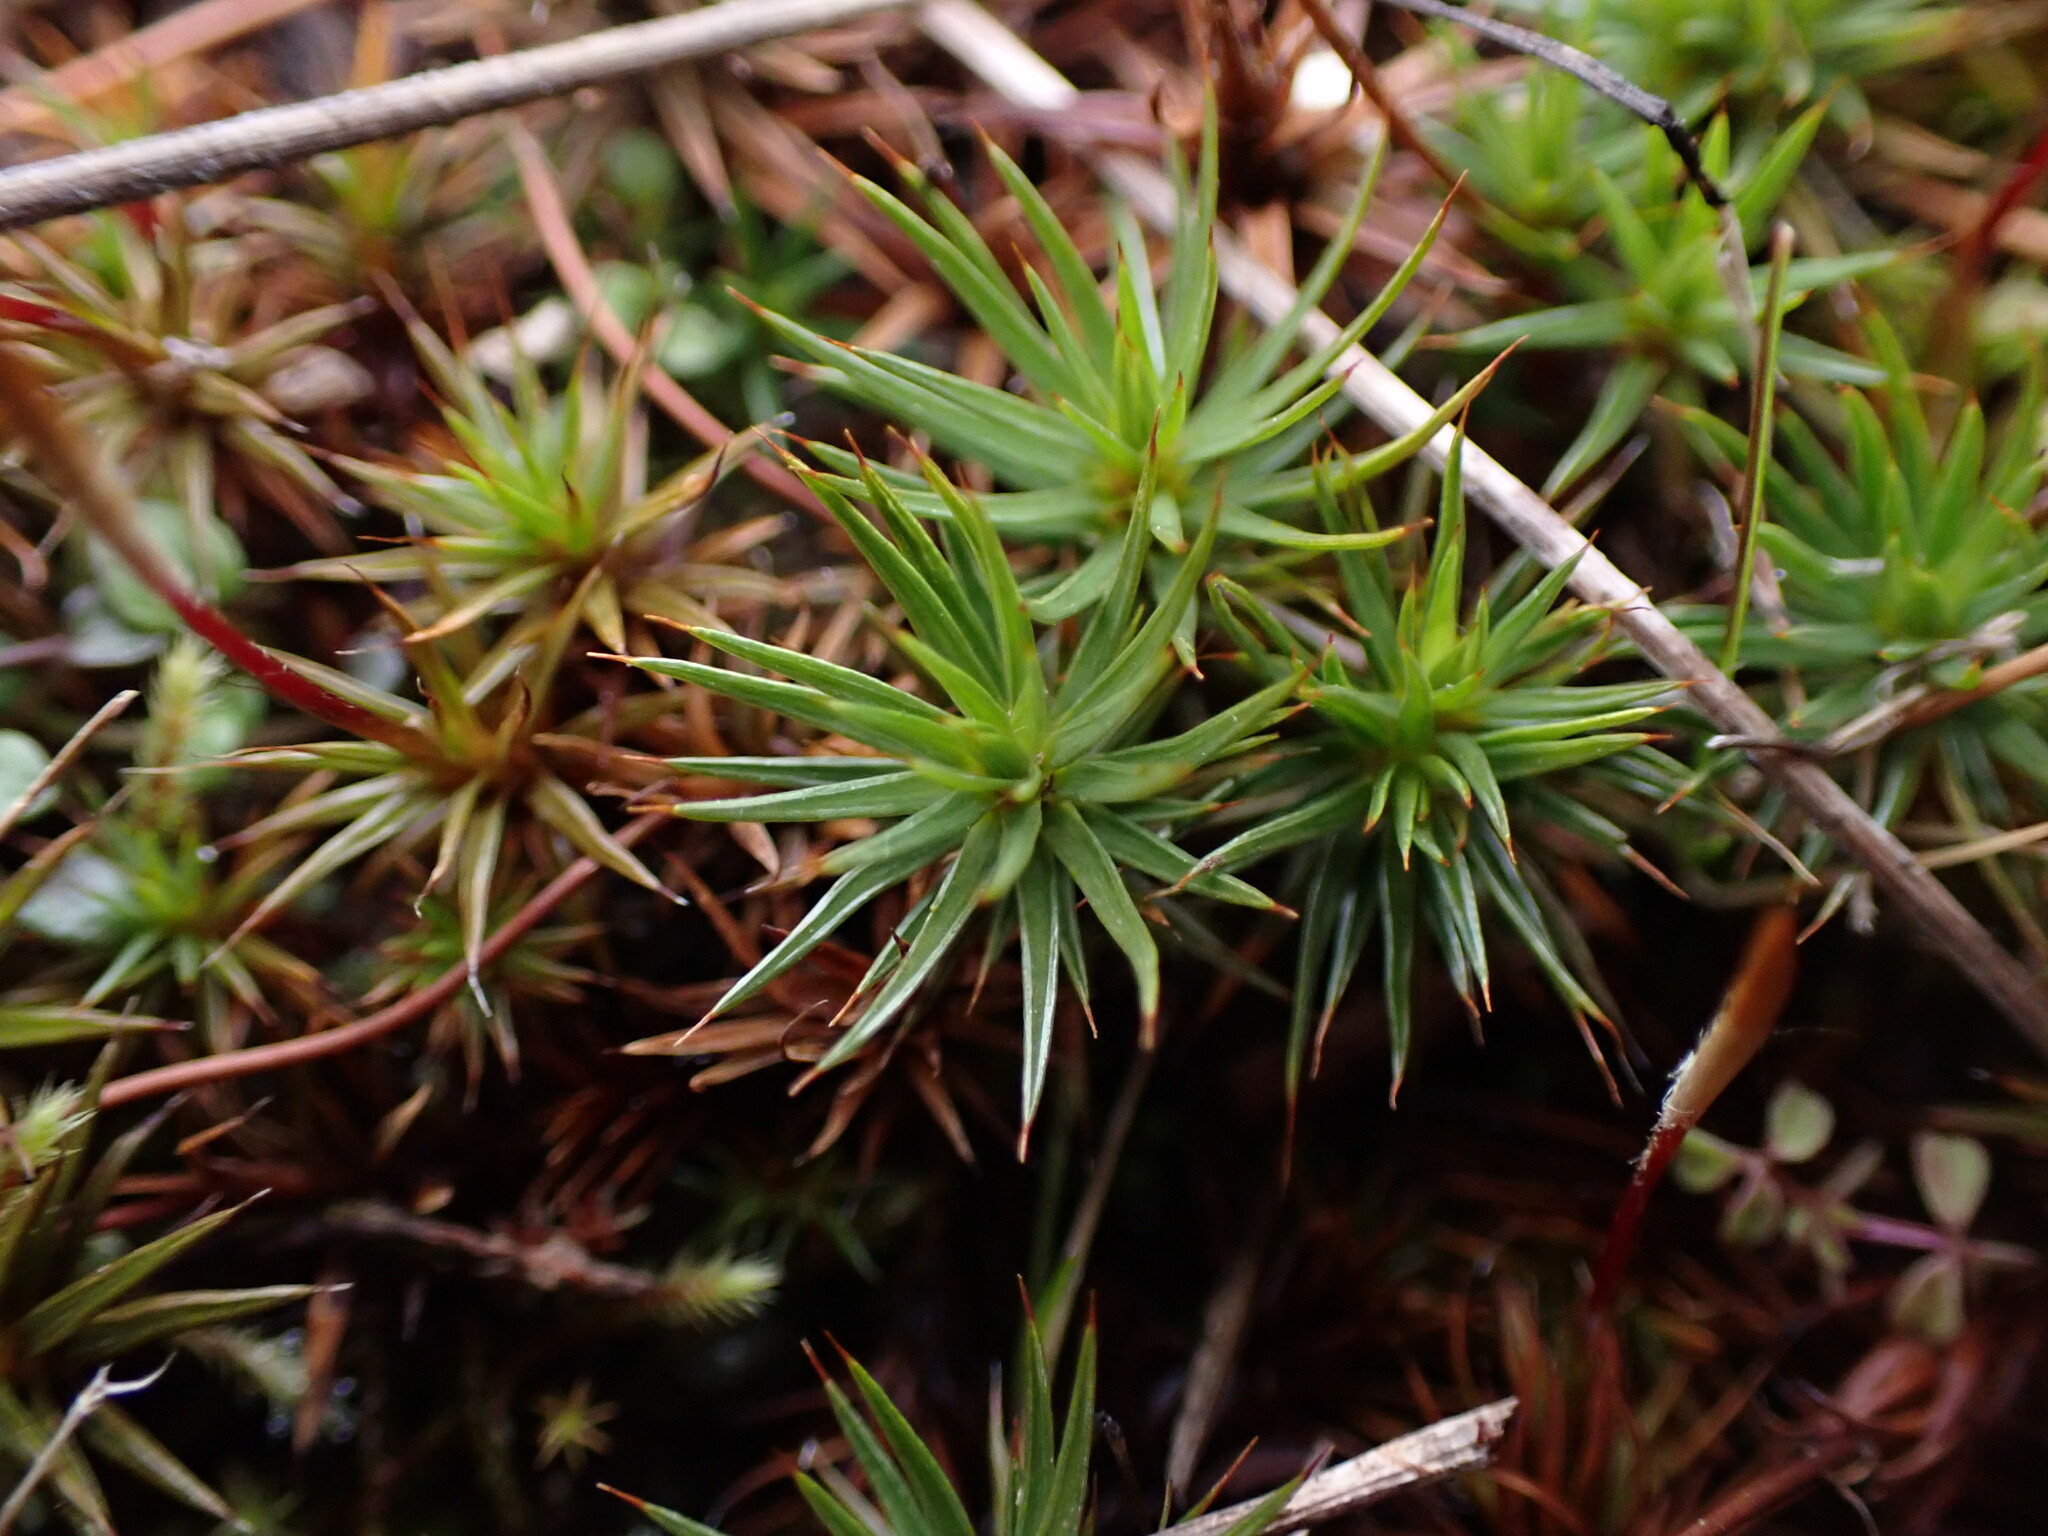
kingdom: Plantae
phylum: Bryophyta
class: Polytrichopsida
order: Polytrichales
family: Polytrichaceae
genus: Polytrichum
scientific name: Polytrichum juniperinum
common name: Juniper haircap moss
